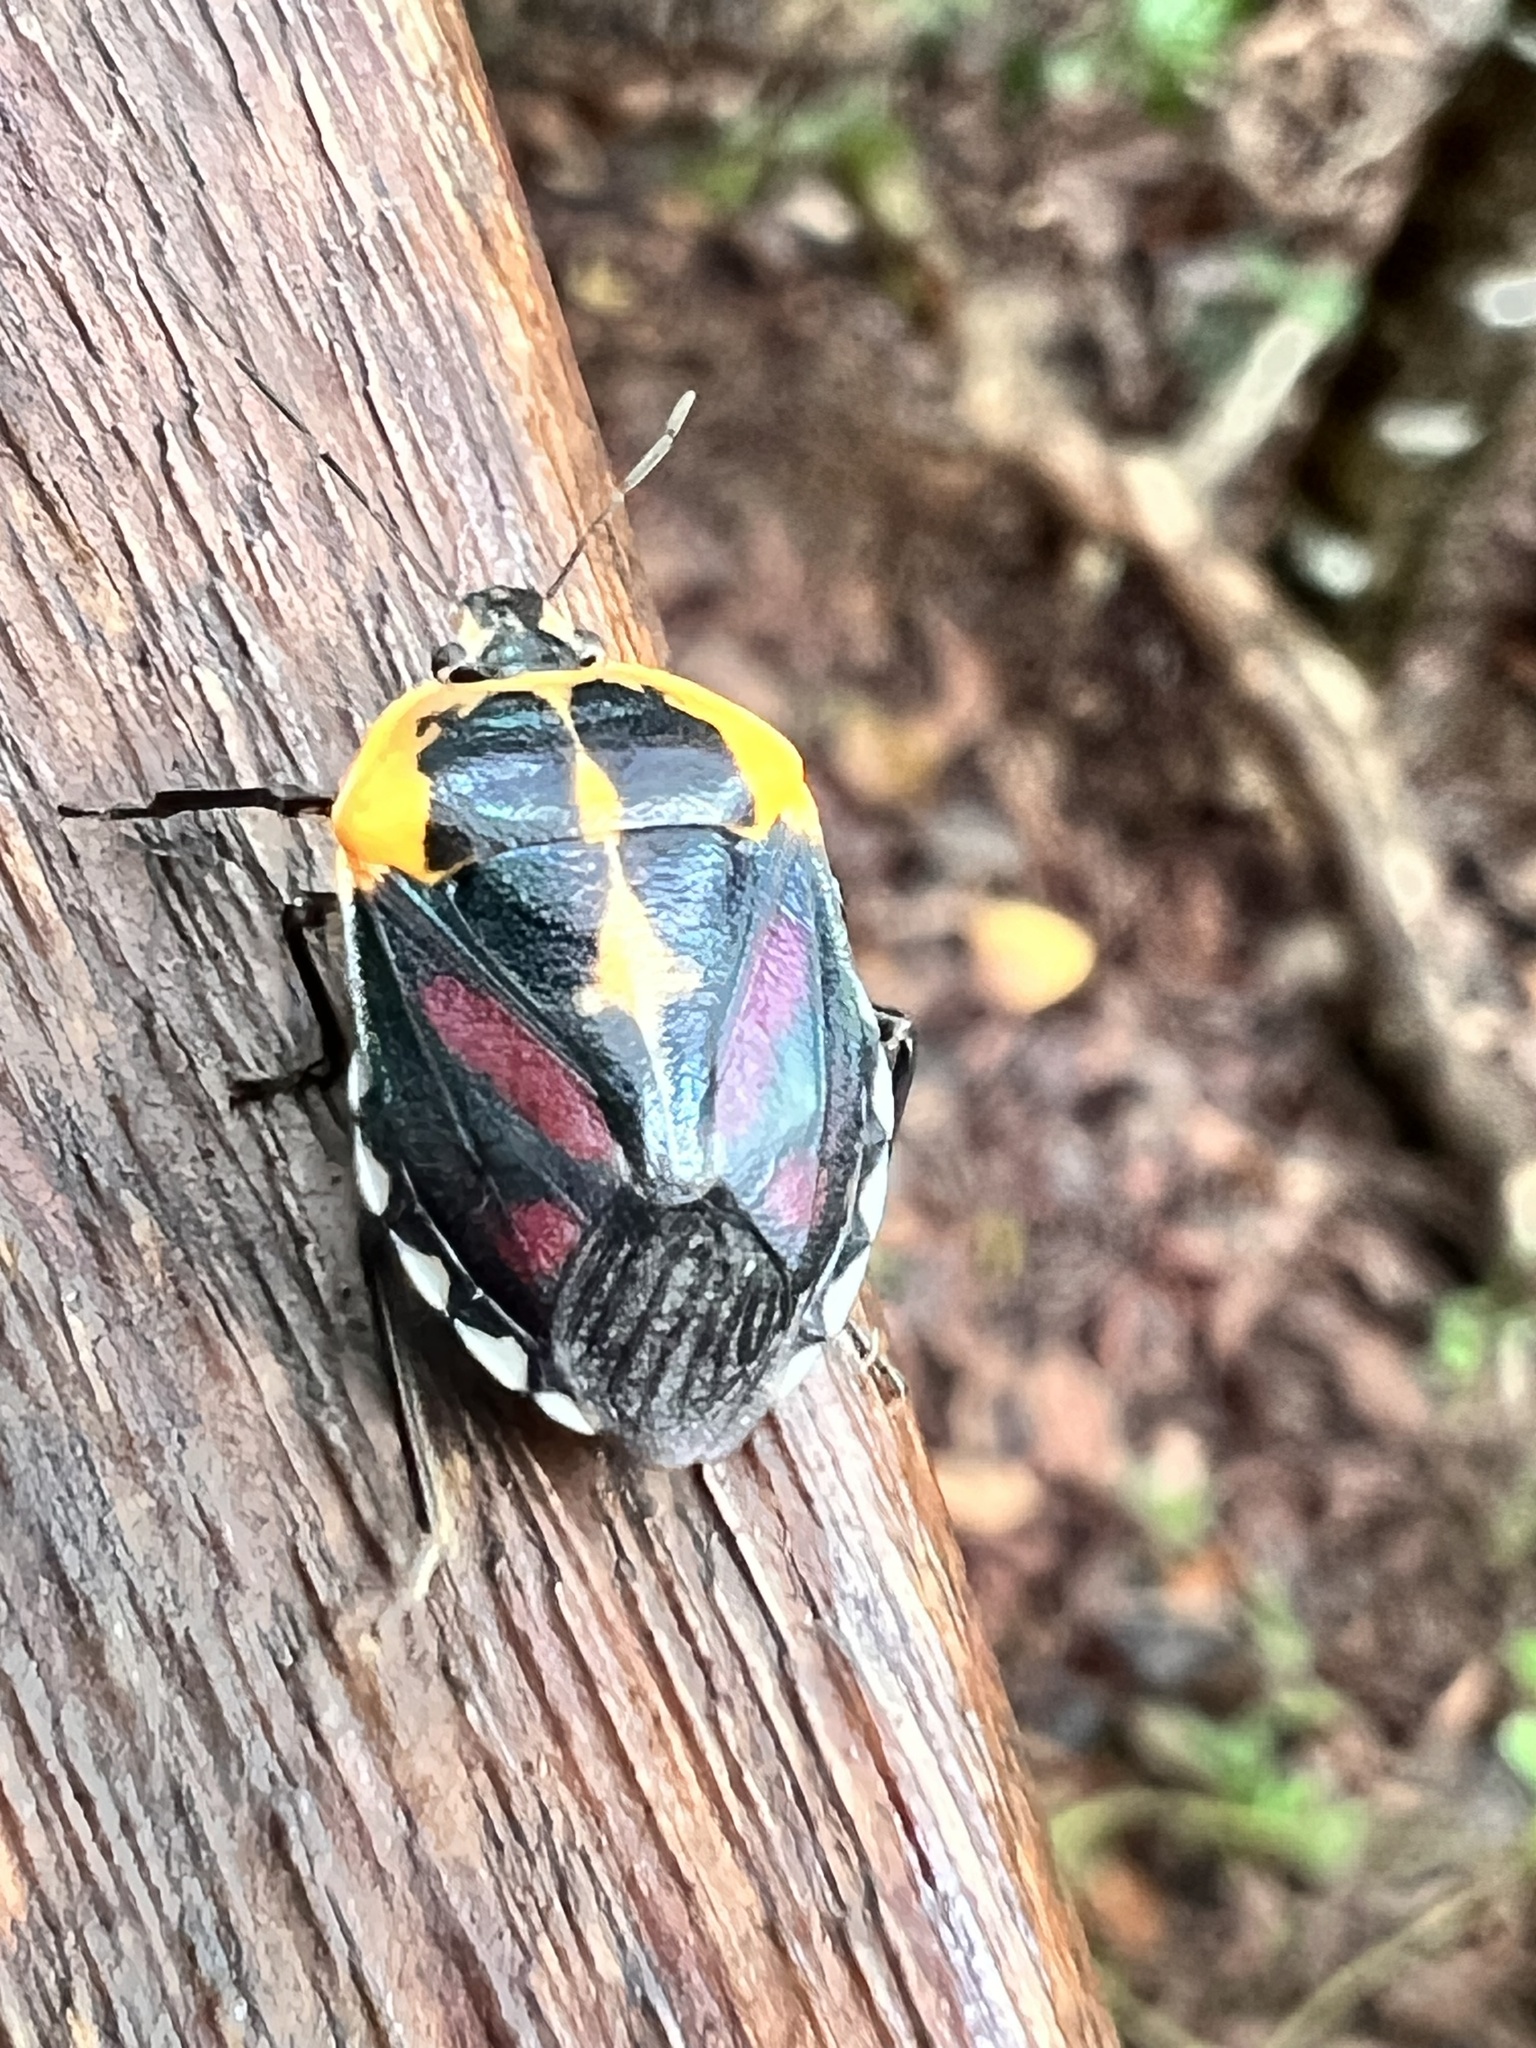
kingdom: Animalia
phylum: Arthropoda
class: Insecta
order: Hemiptera
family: Pentatomidae
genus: Amyotea
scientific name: Amyotea
